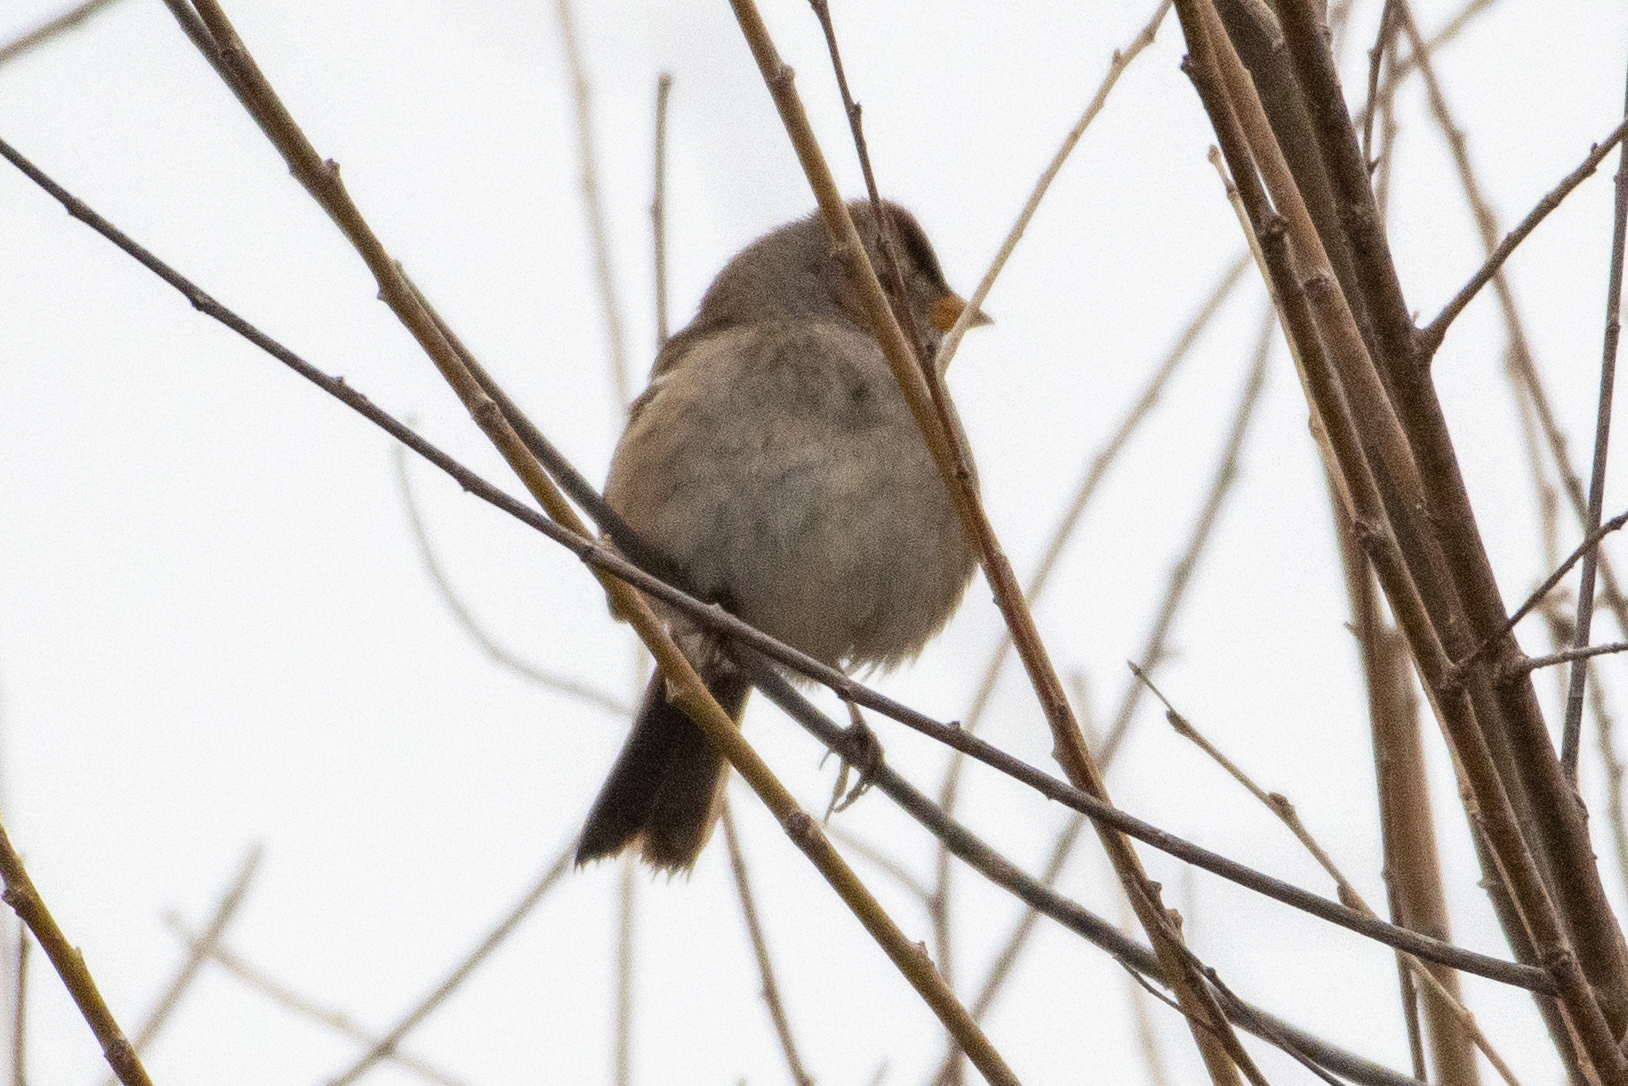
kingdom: Animalia
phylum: Chordata
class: Aves
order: Passeriformes
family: Passerellidae
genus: Zonotrichia
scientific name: Zonotrichia leucophrys
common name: White-crowned sparrow
